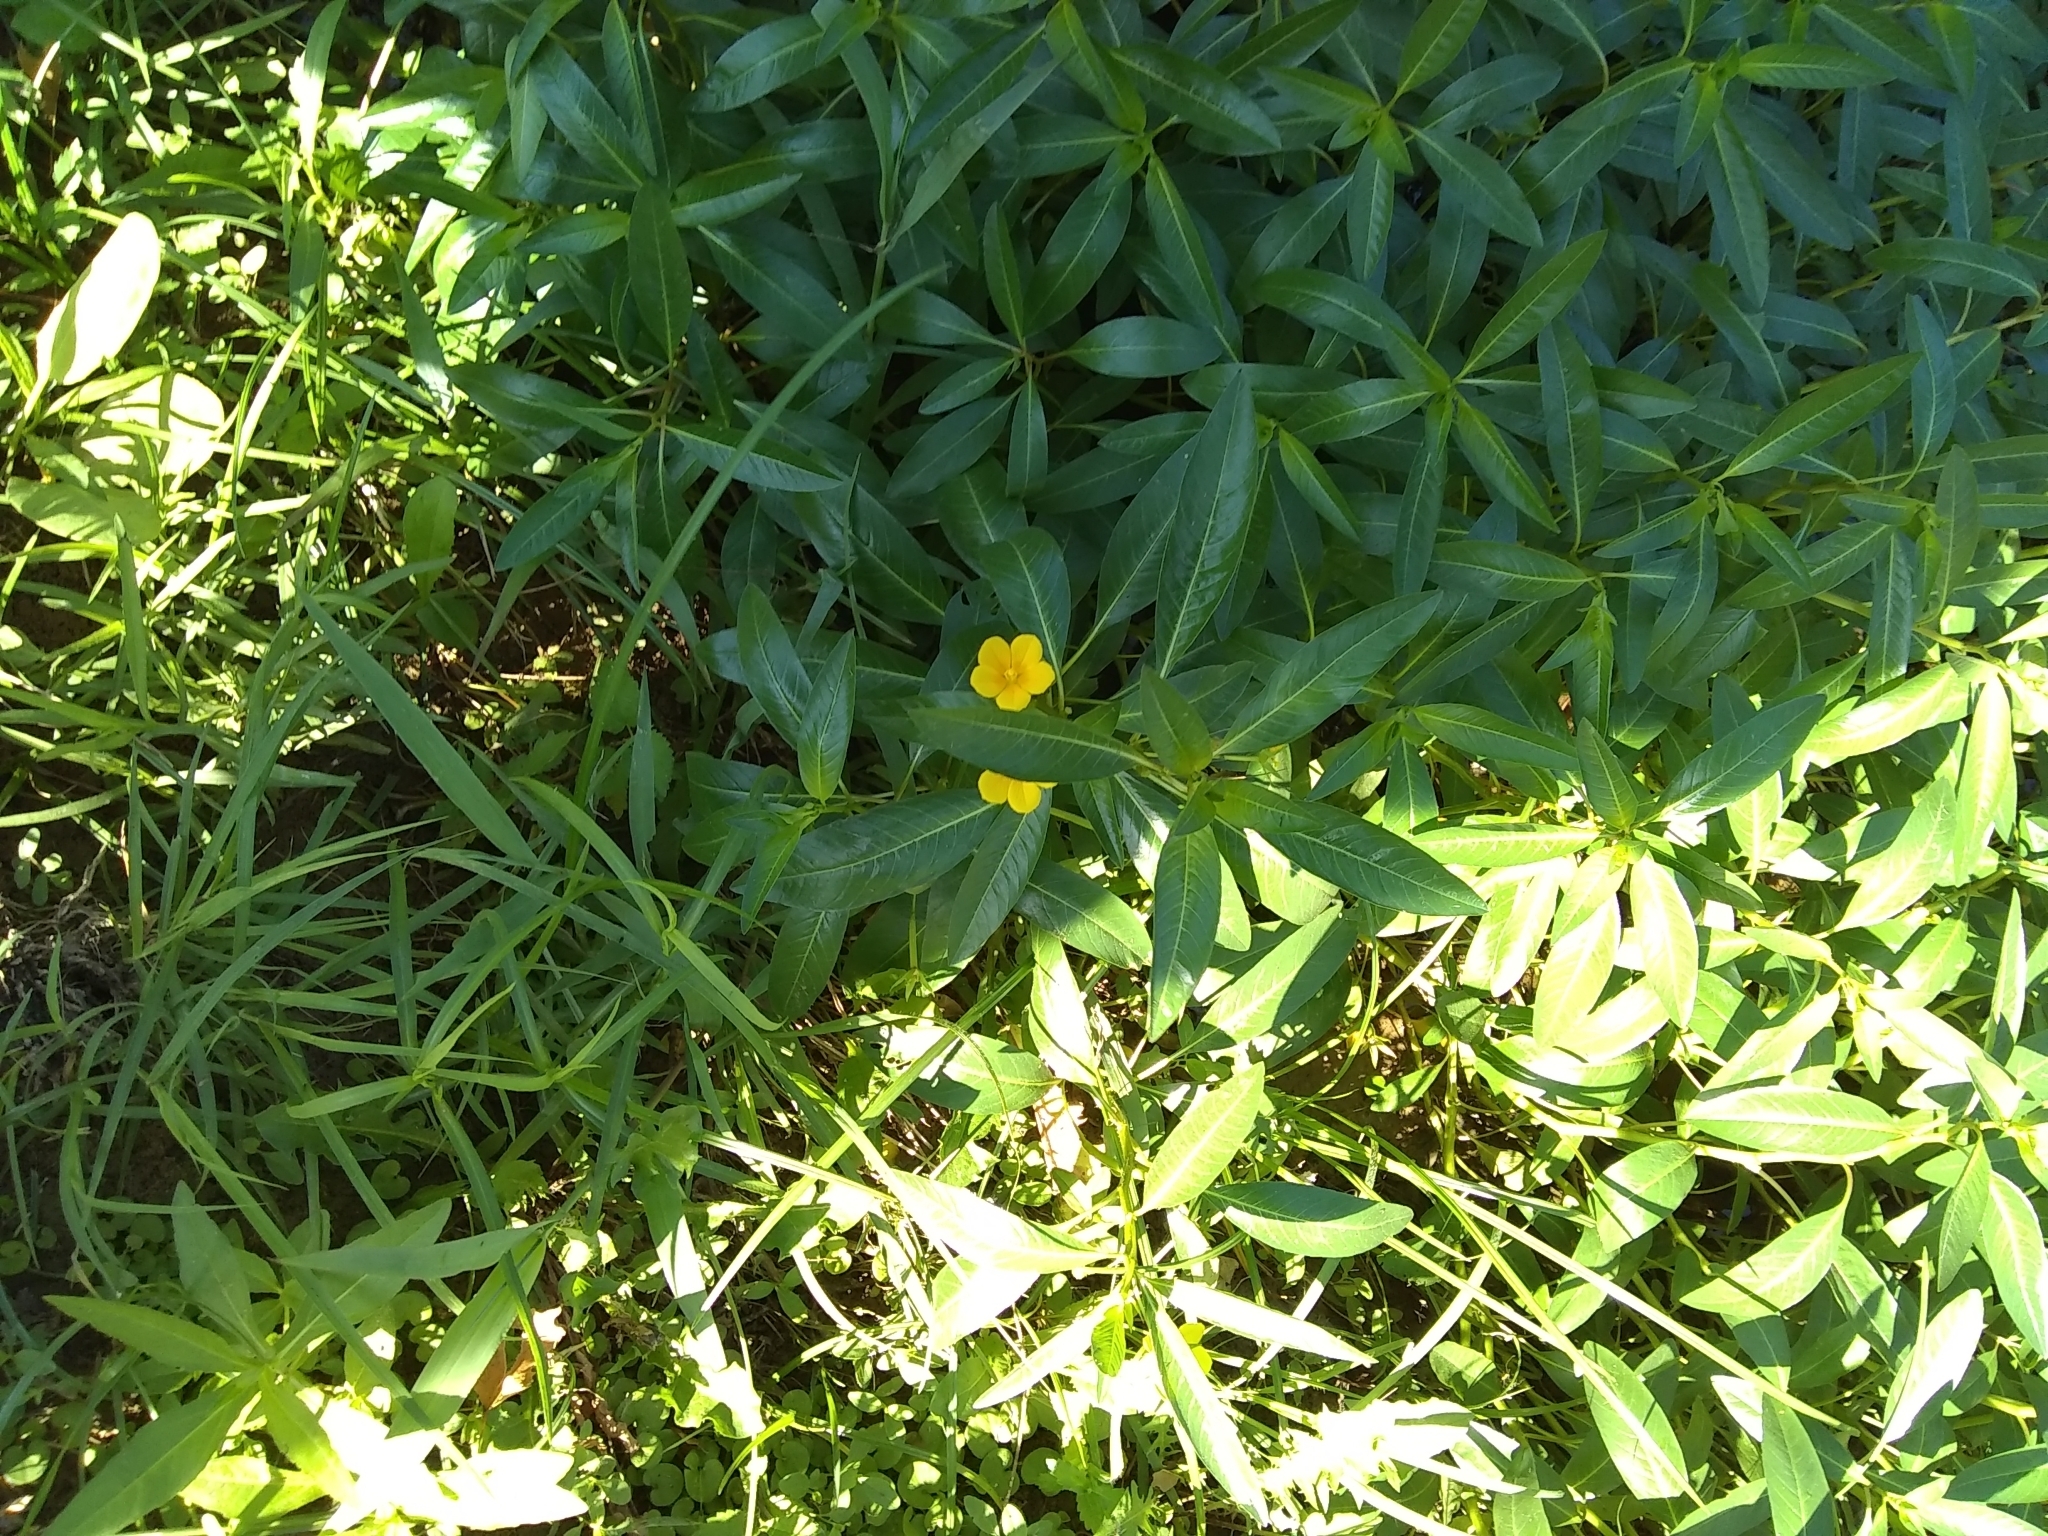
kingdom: Plantae
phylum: Tracheophyta
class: Magnoliopsida
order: Myrtales
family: Onagraceae
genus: Ludwigia
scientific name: Ludwigia peploides
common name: Floating primrose-willow
